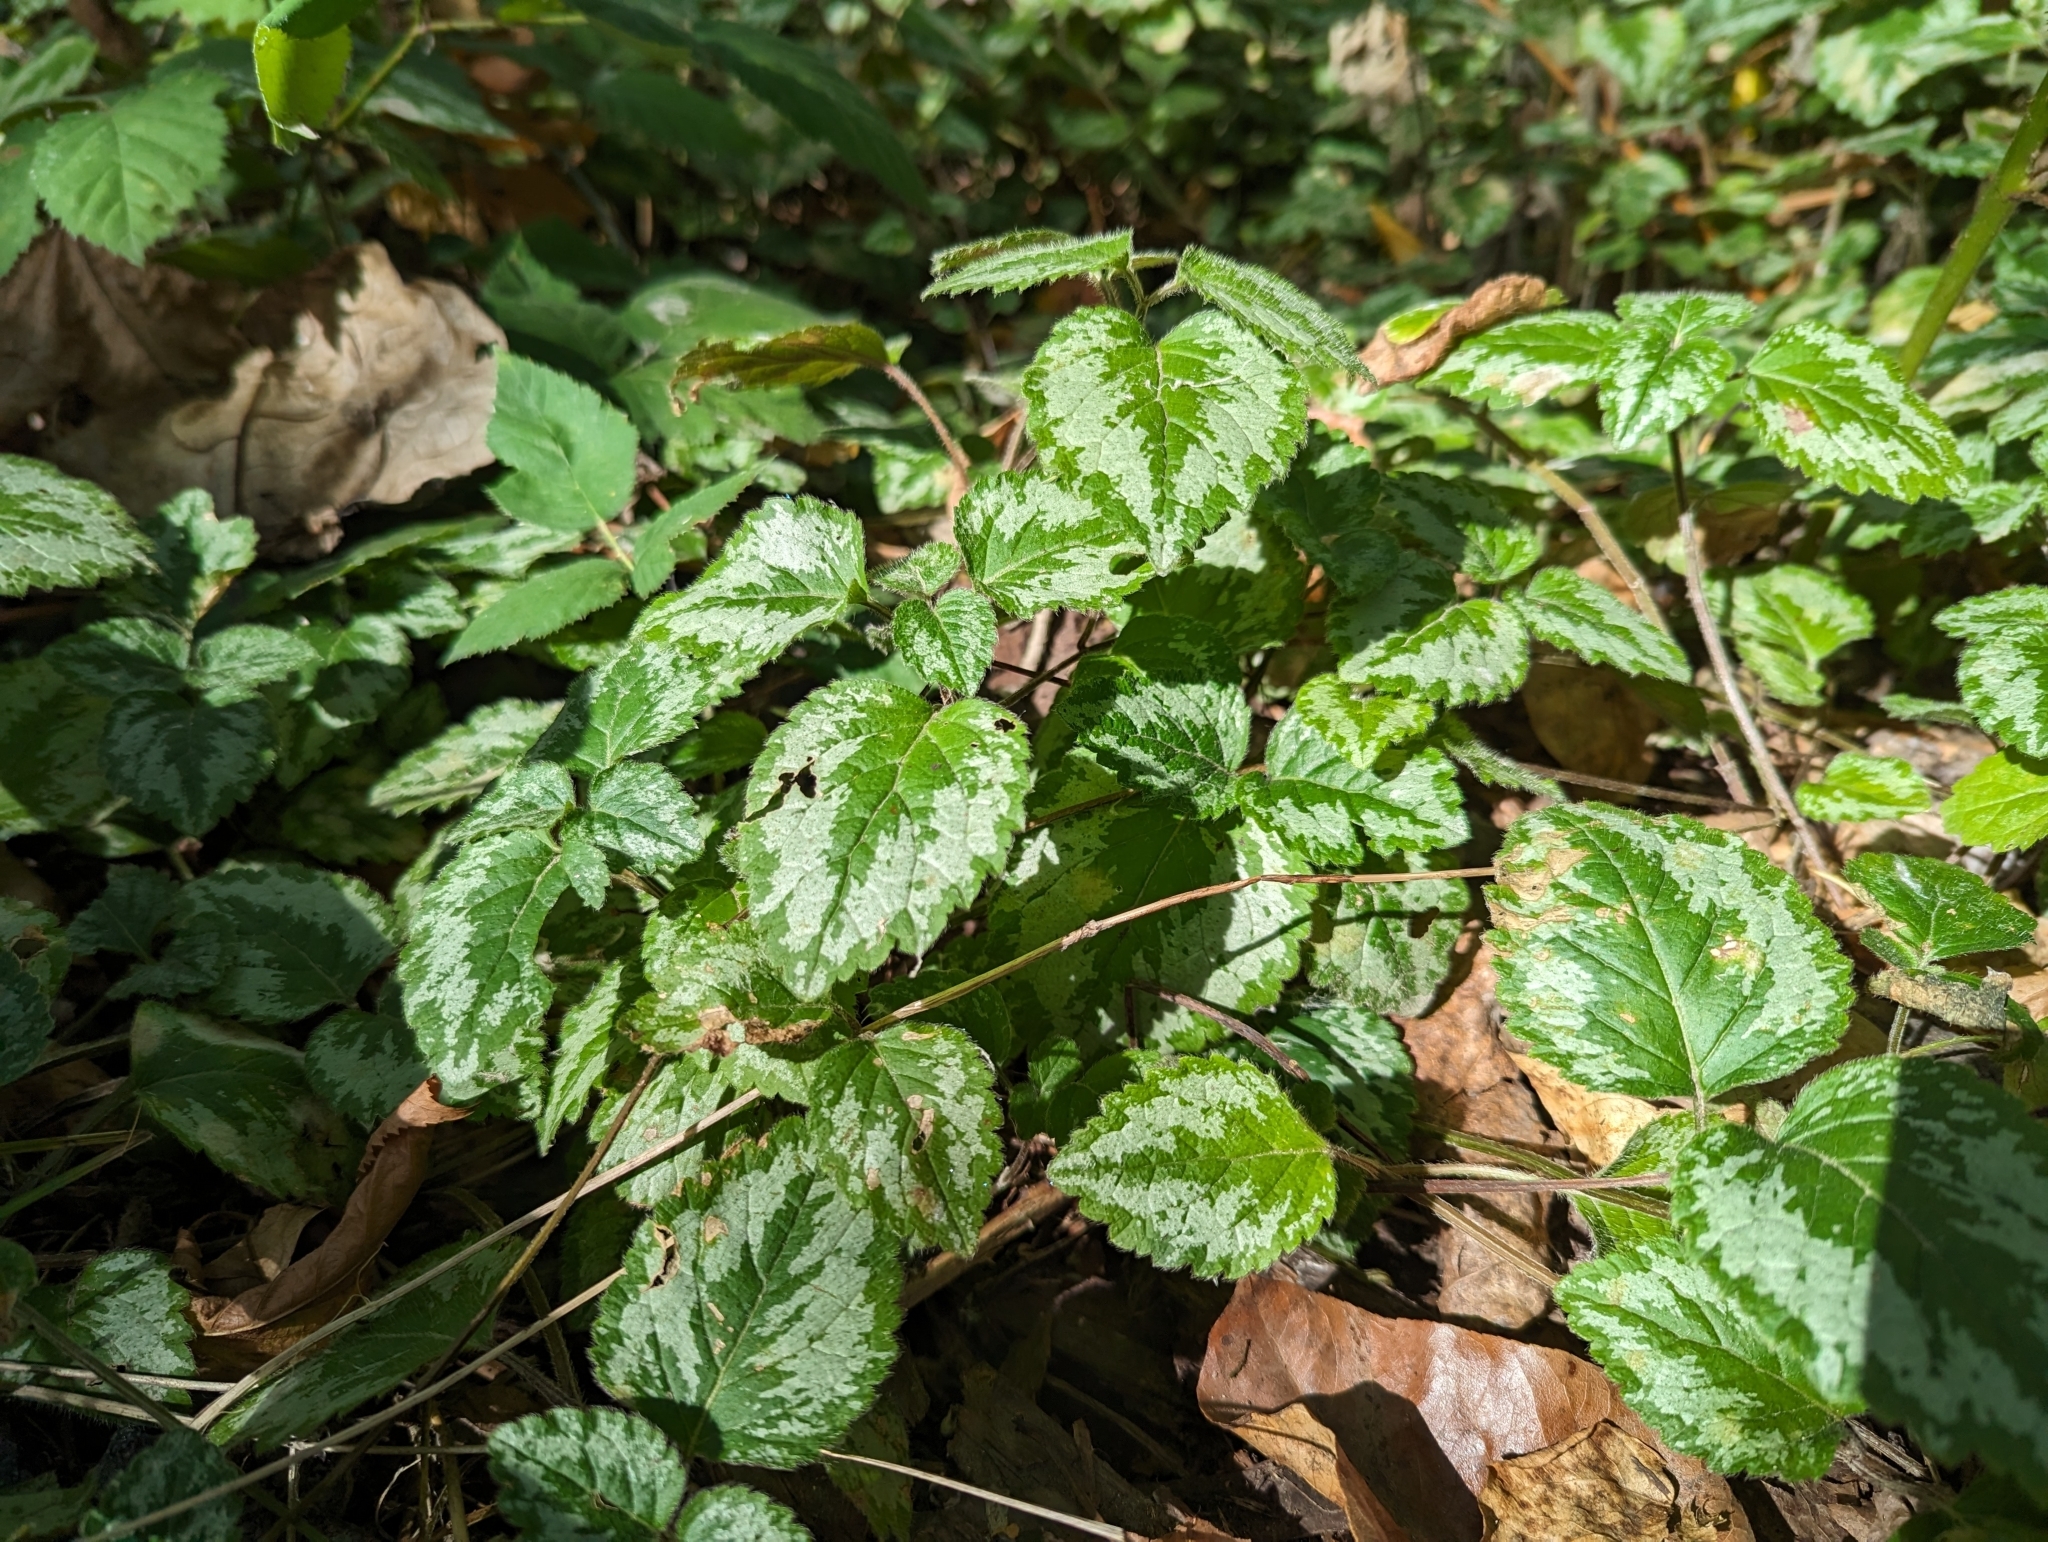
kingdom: Plantae
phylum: Tracheophyta
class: Magnoliopsida
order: Lamiales
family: Lamiaceae
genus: Lamium
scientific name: Lamium galeobdolon
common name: Yellow archangel
